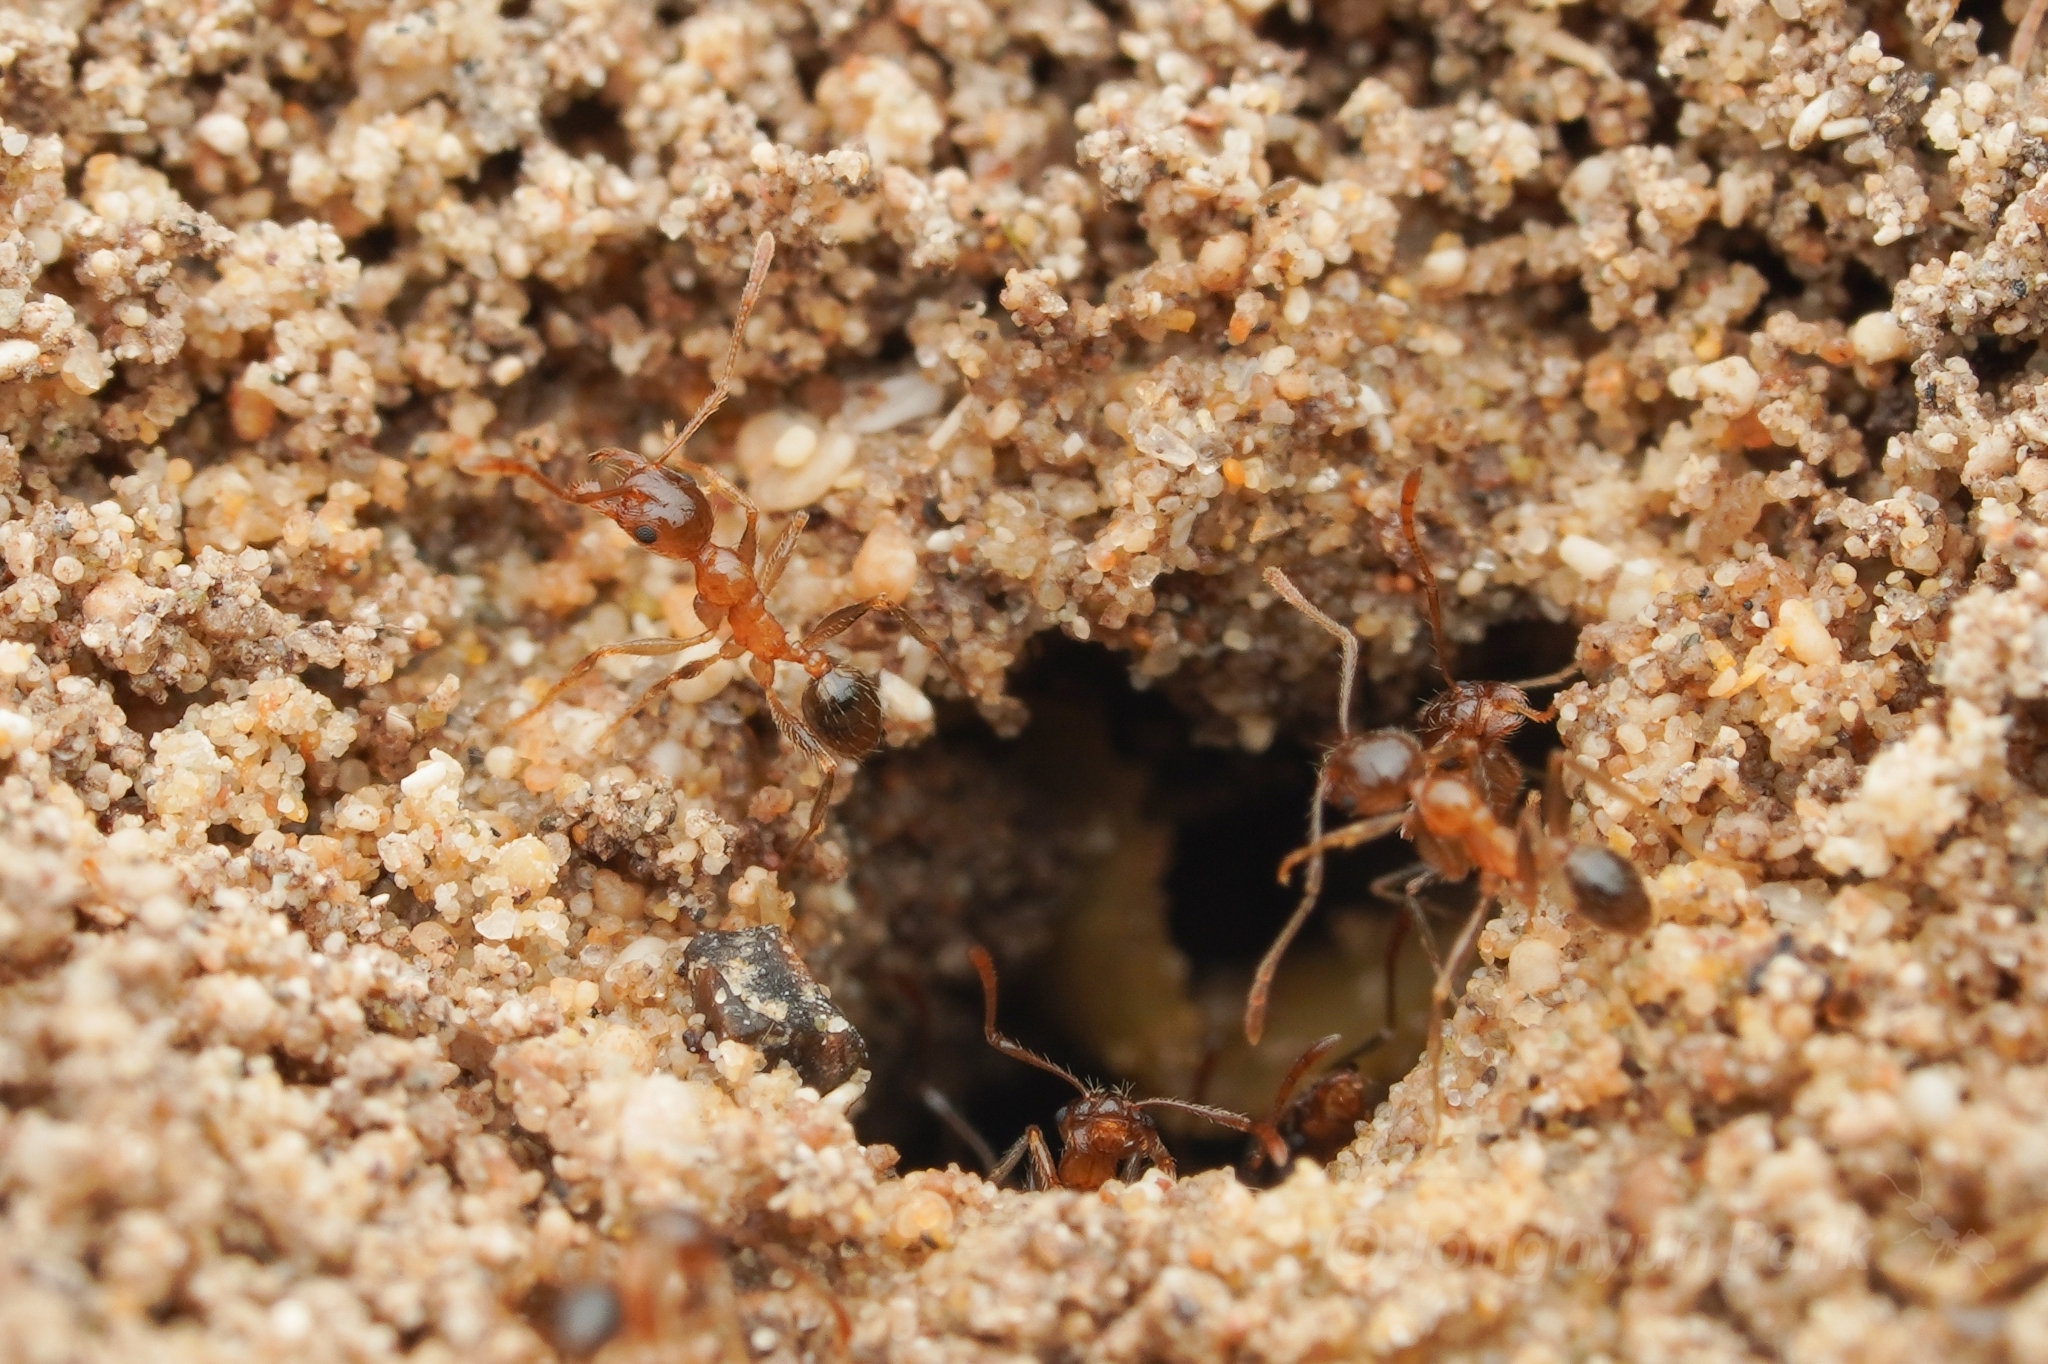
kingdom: Animalia
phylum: Arthropoda
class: Insecta
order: Hymenoptera
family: Formicidae
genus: Pheidole
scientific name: Pheidole indica
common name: Big-headed ant
